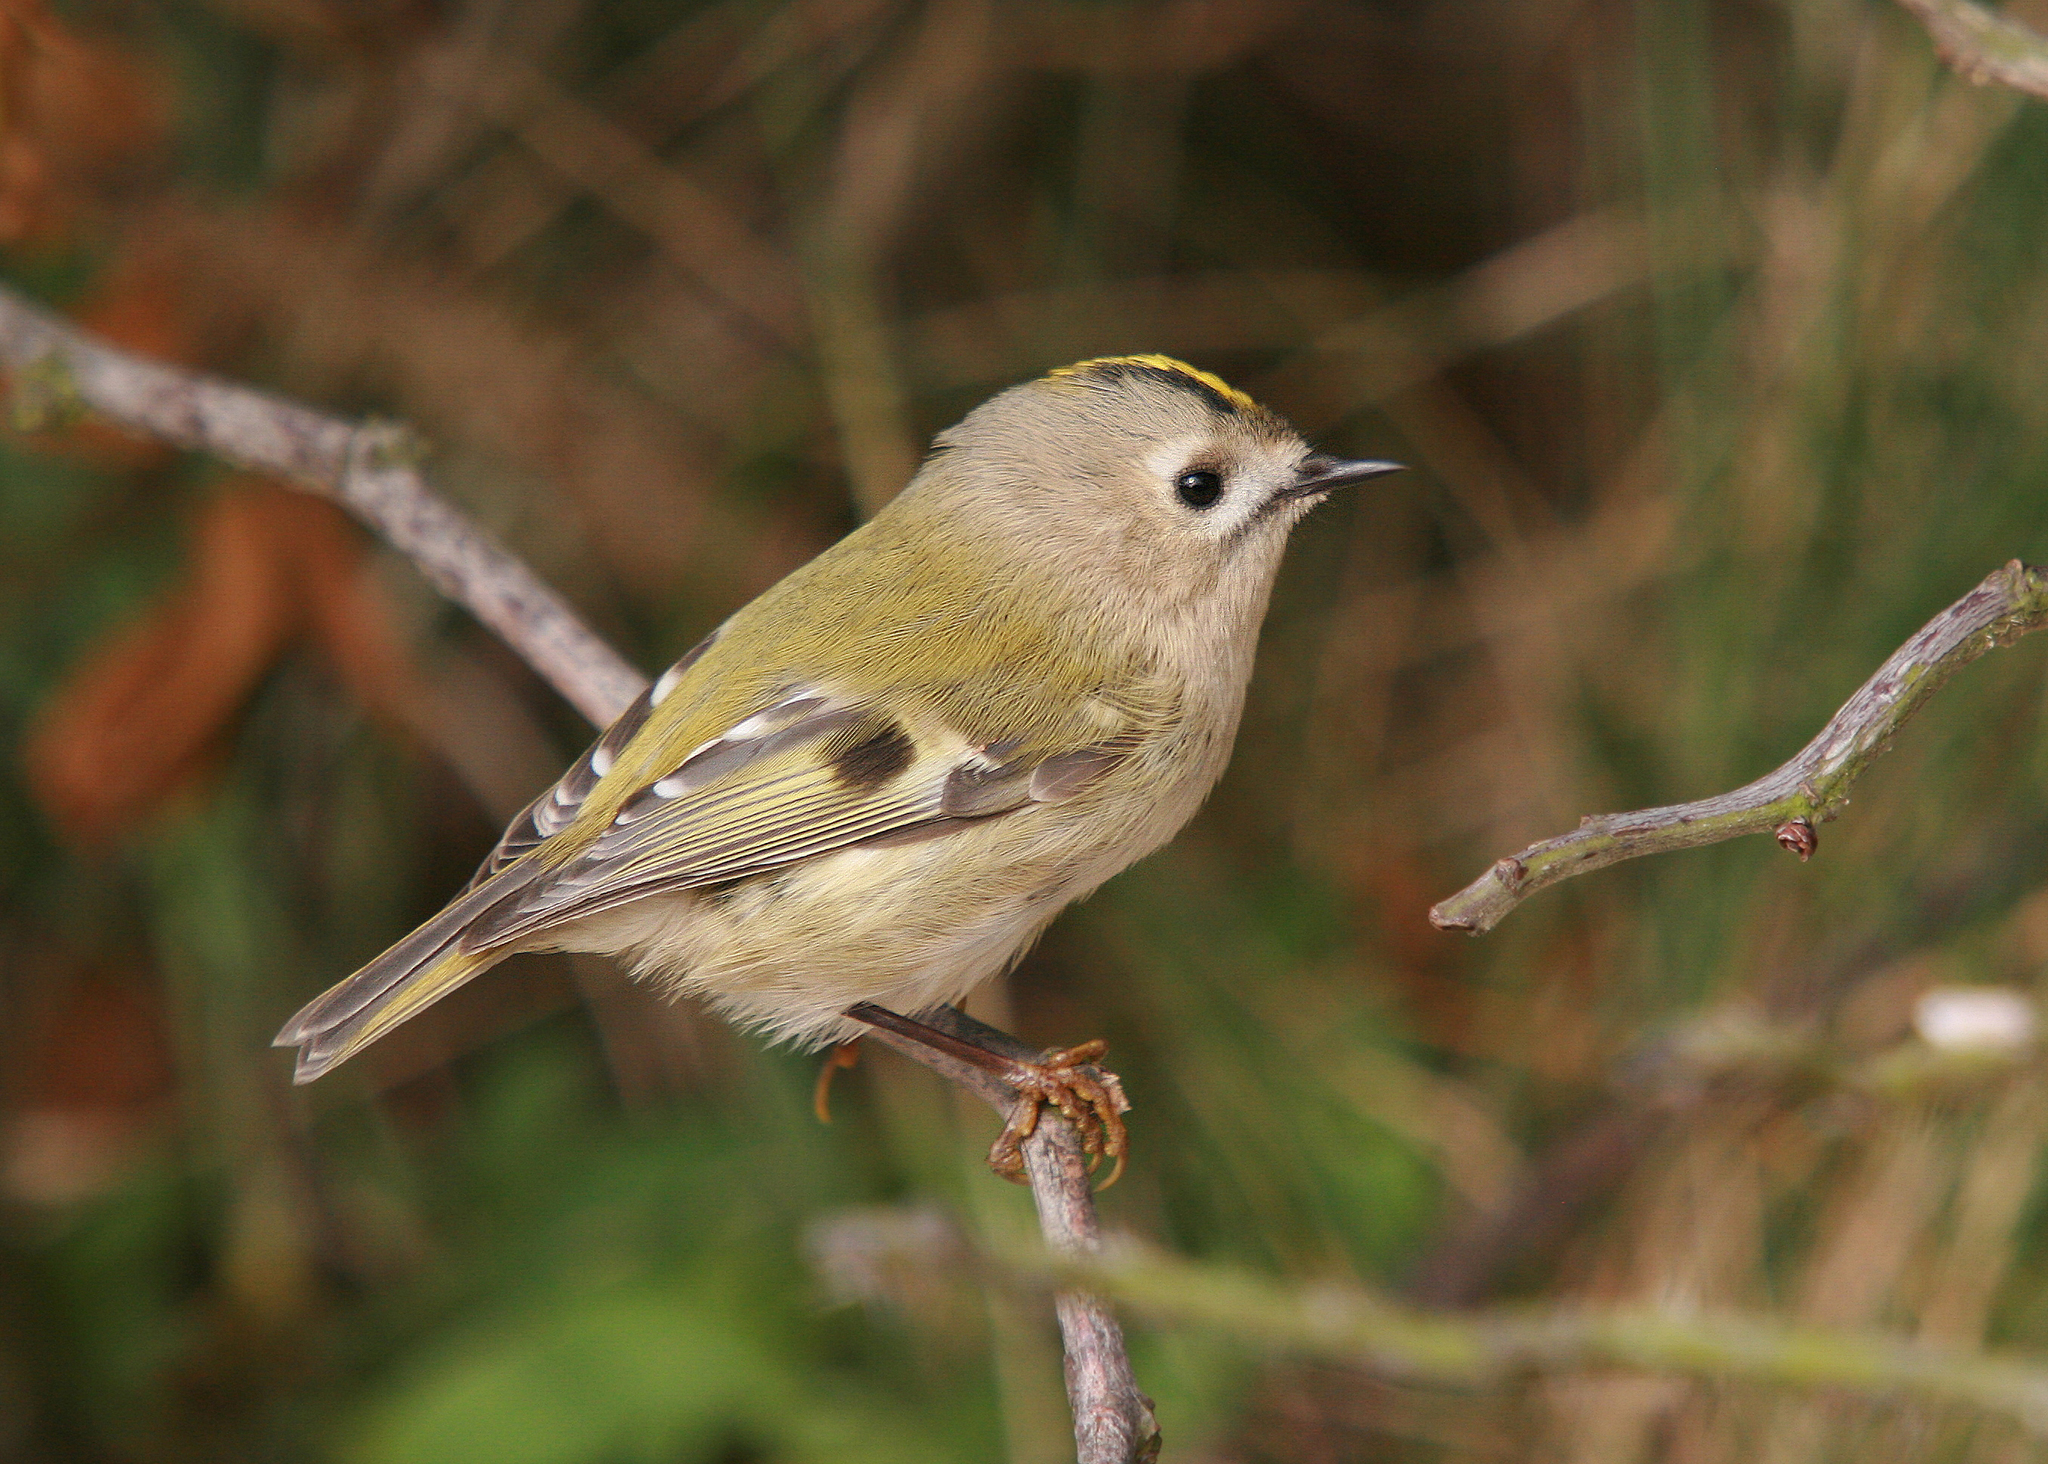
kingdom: Animalia
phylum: Chordata
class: Aves
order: Passeriformes
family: Regulidae
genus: Regulus
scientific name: Regulus regulus
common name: Goldcrest
